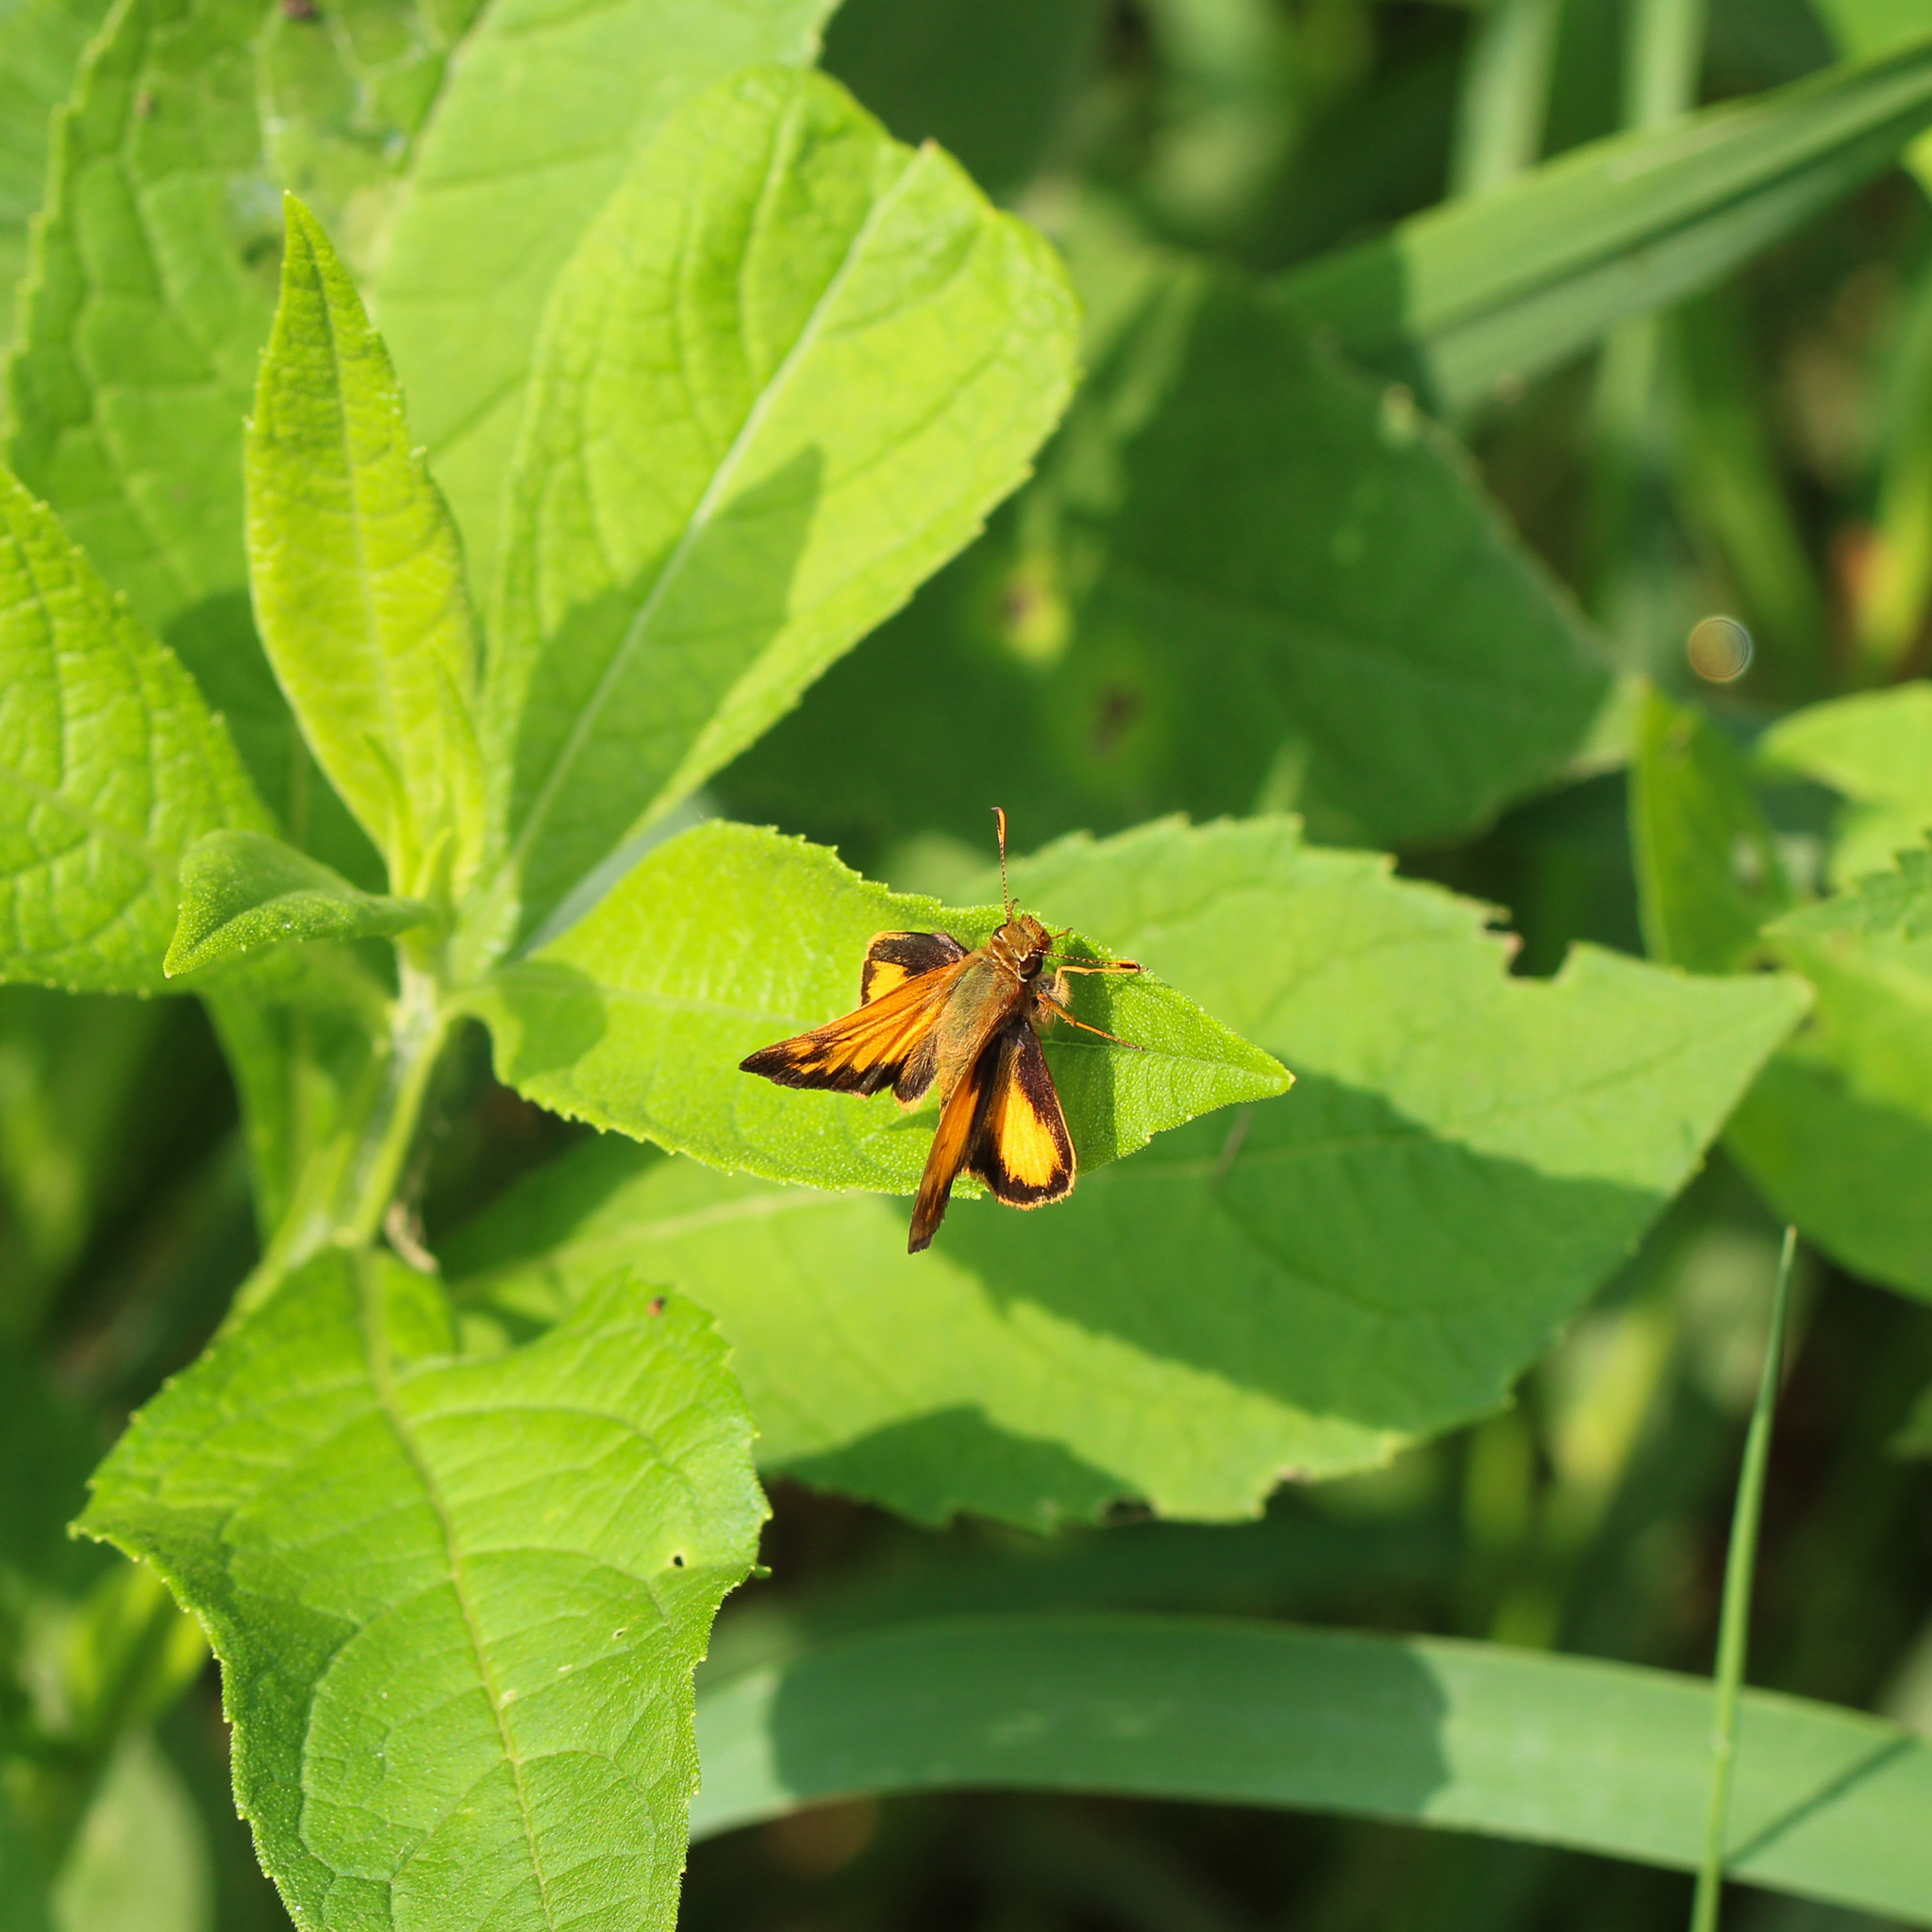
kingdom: Animalia
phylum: Arthropoda
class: Insecta
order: Lepidoptera
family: Hesperiidae
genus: Lon
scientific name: Lon zabulon
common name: Zabulon skipper
